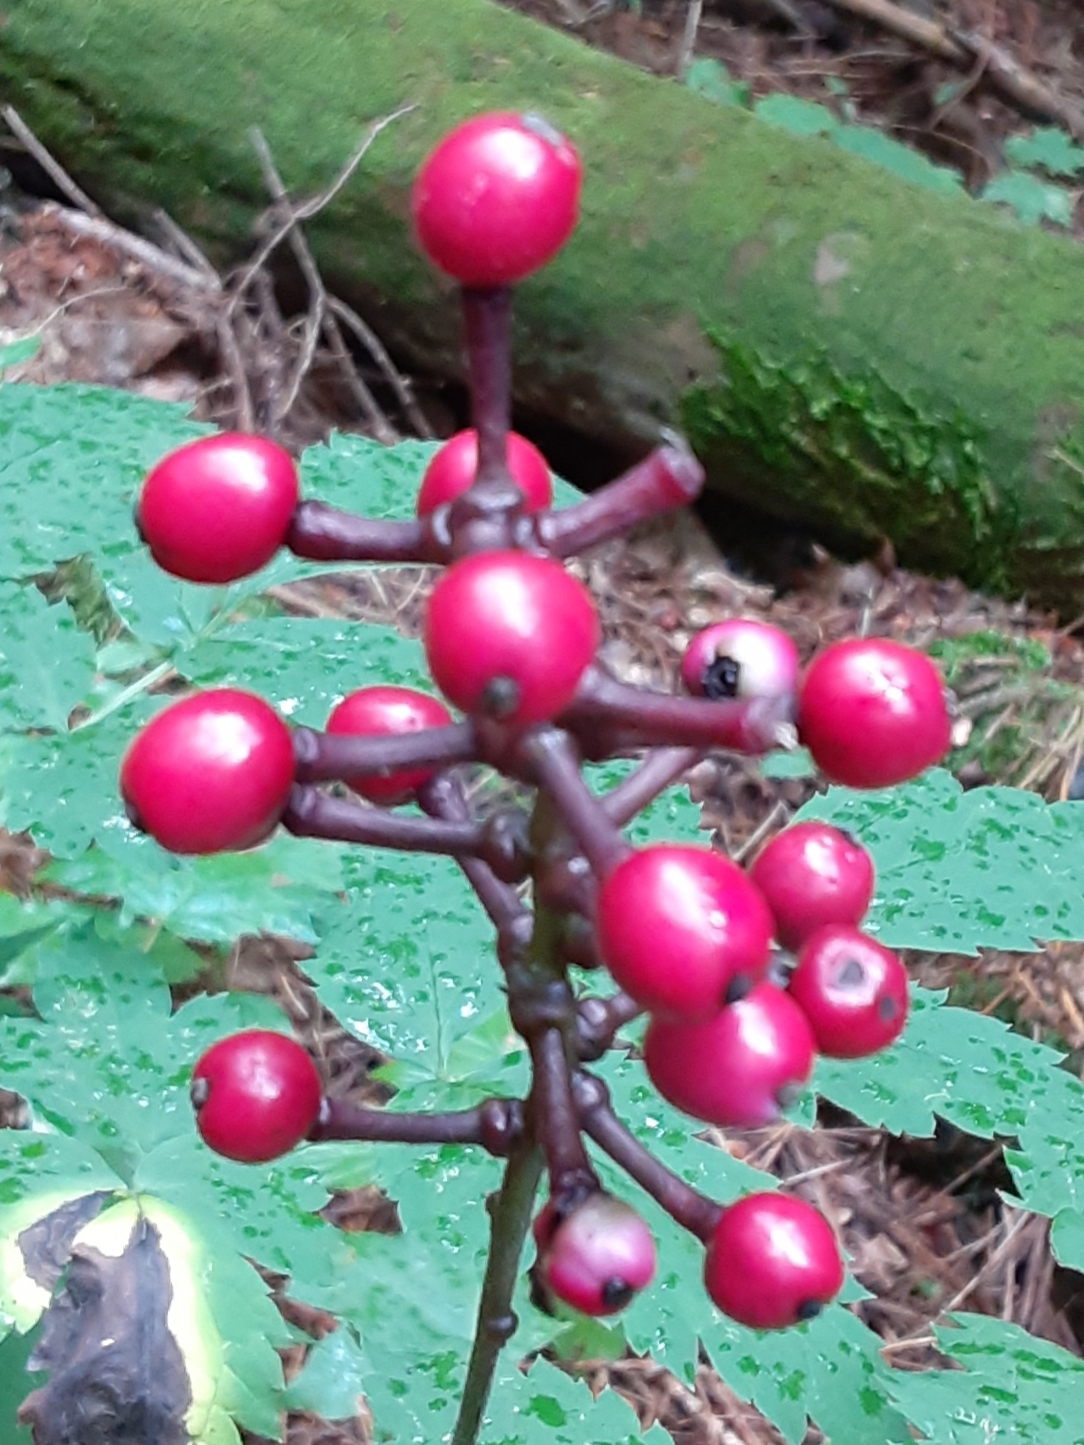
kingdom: Plantae
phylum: Tracheophyta
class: Magnoliopsida
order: Ranunculales
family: Ranunculaceae
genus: Actaea
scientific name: Actaea pachypoda
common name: Doll's-eyes
